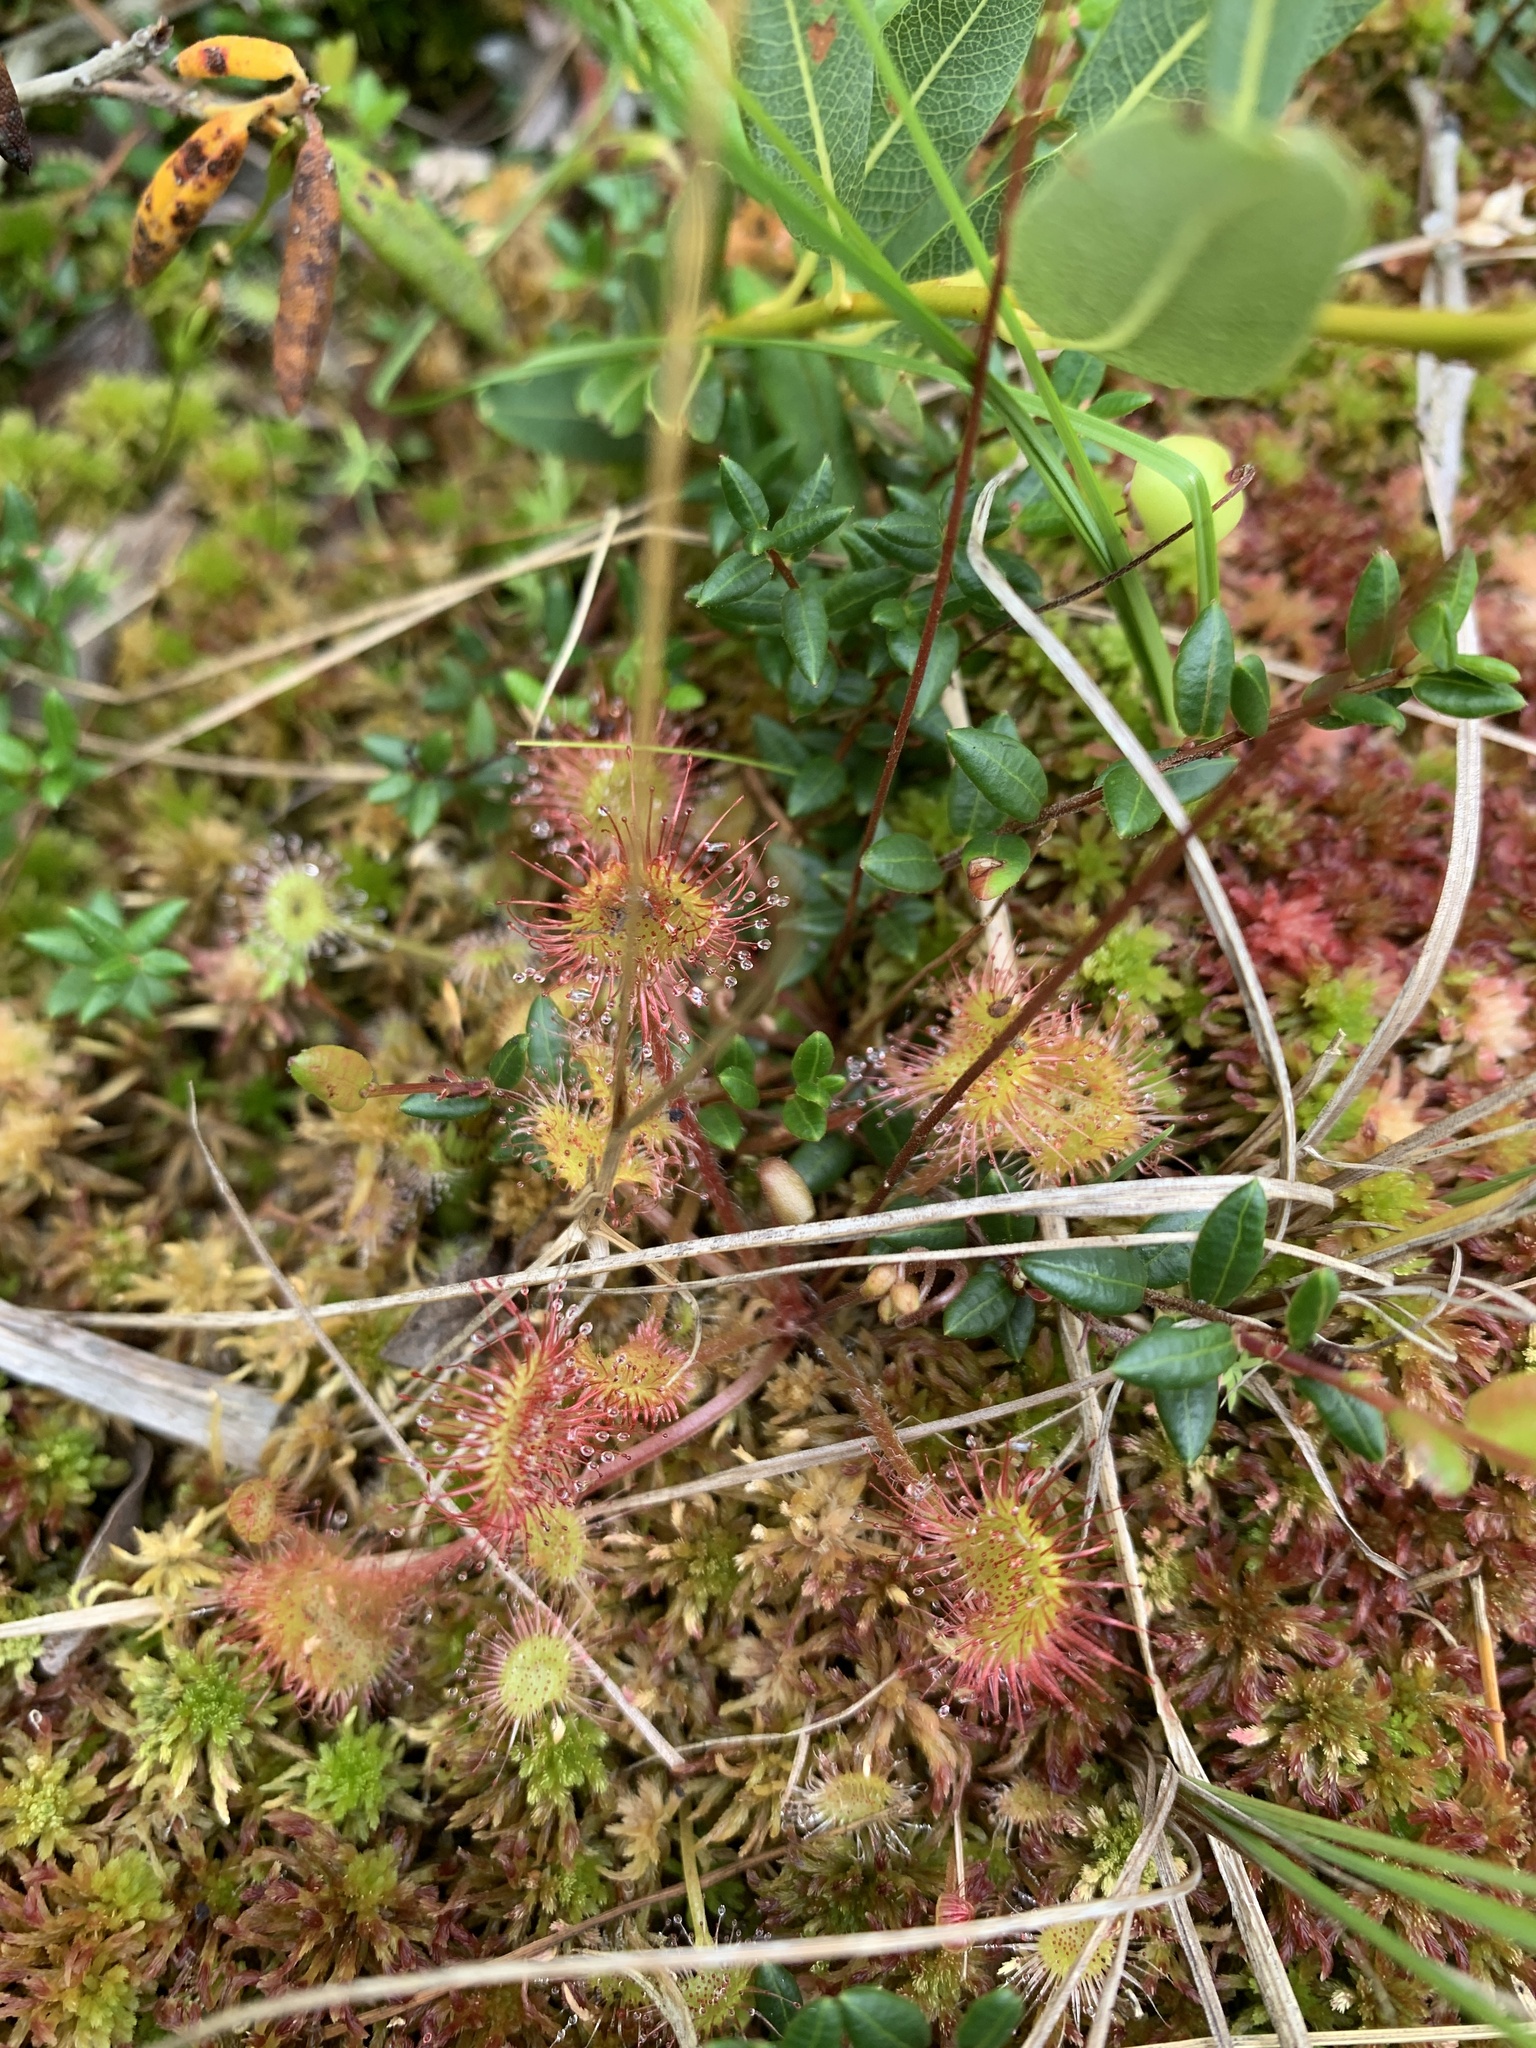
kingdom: Plantae
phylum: Tracheophyta
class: Magnoliopsida
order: Caryophyllales
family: Droseraceae
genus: Drosera
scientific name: Drosera rotundifolia
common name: Round-leaved sundew
